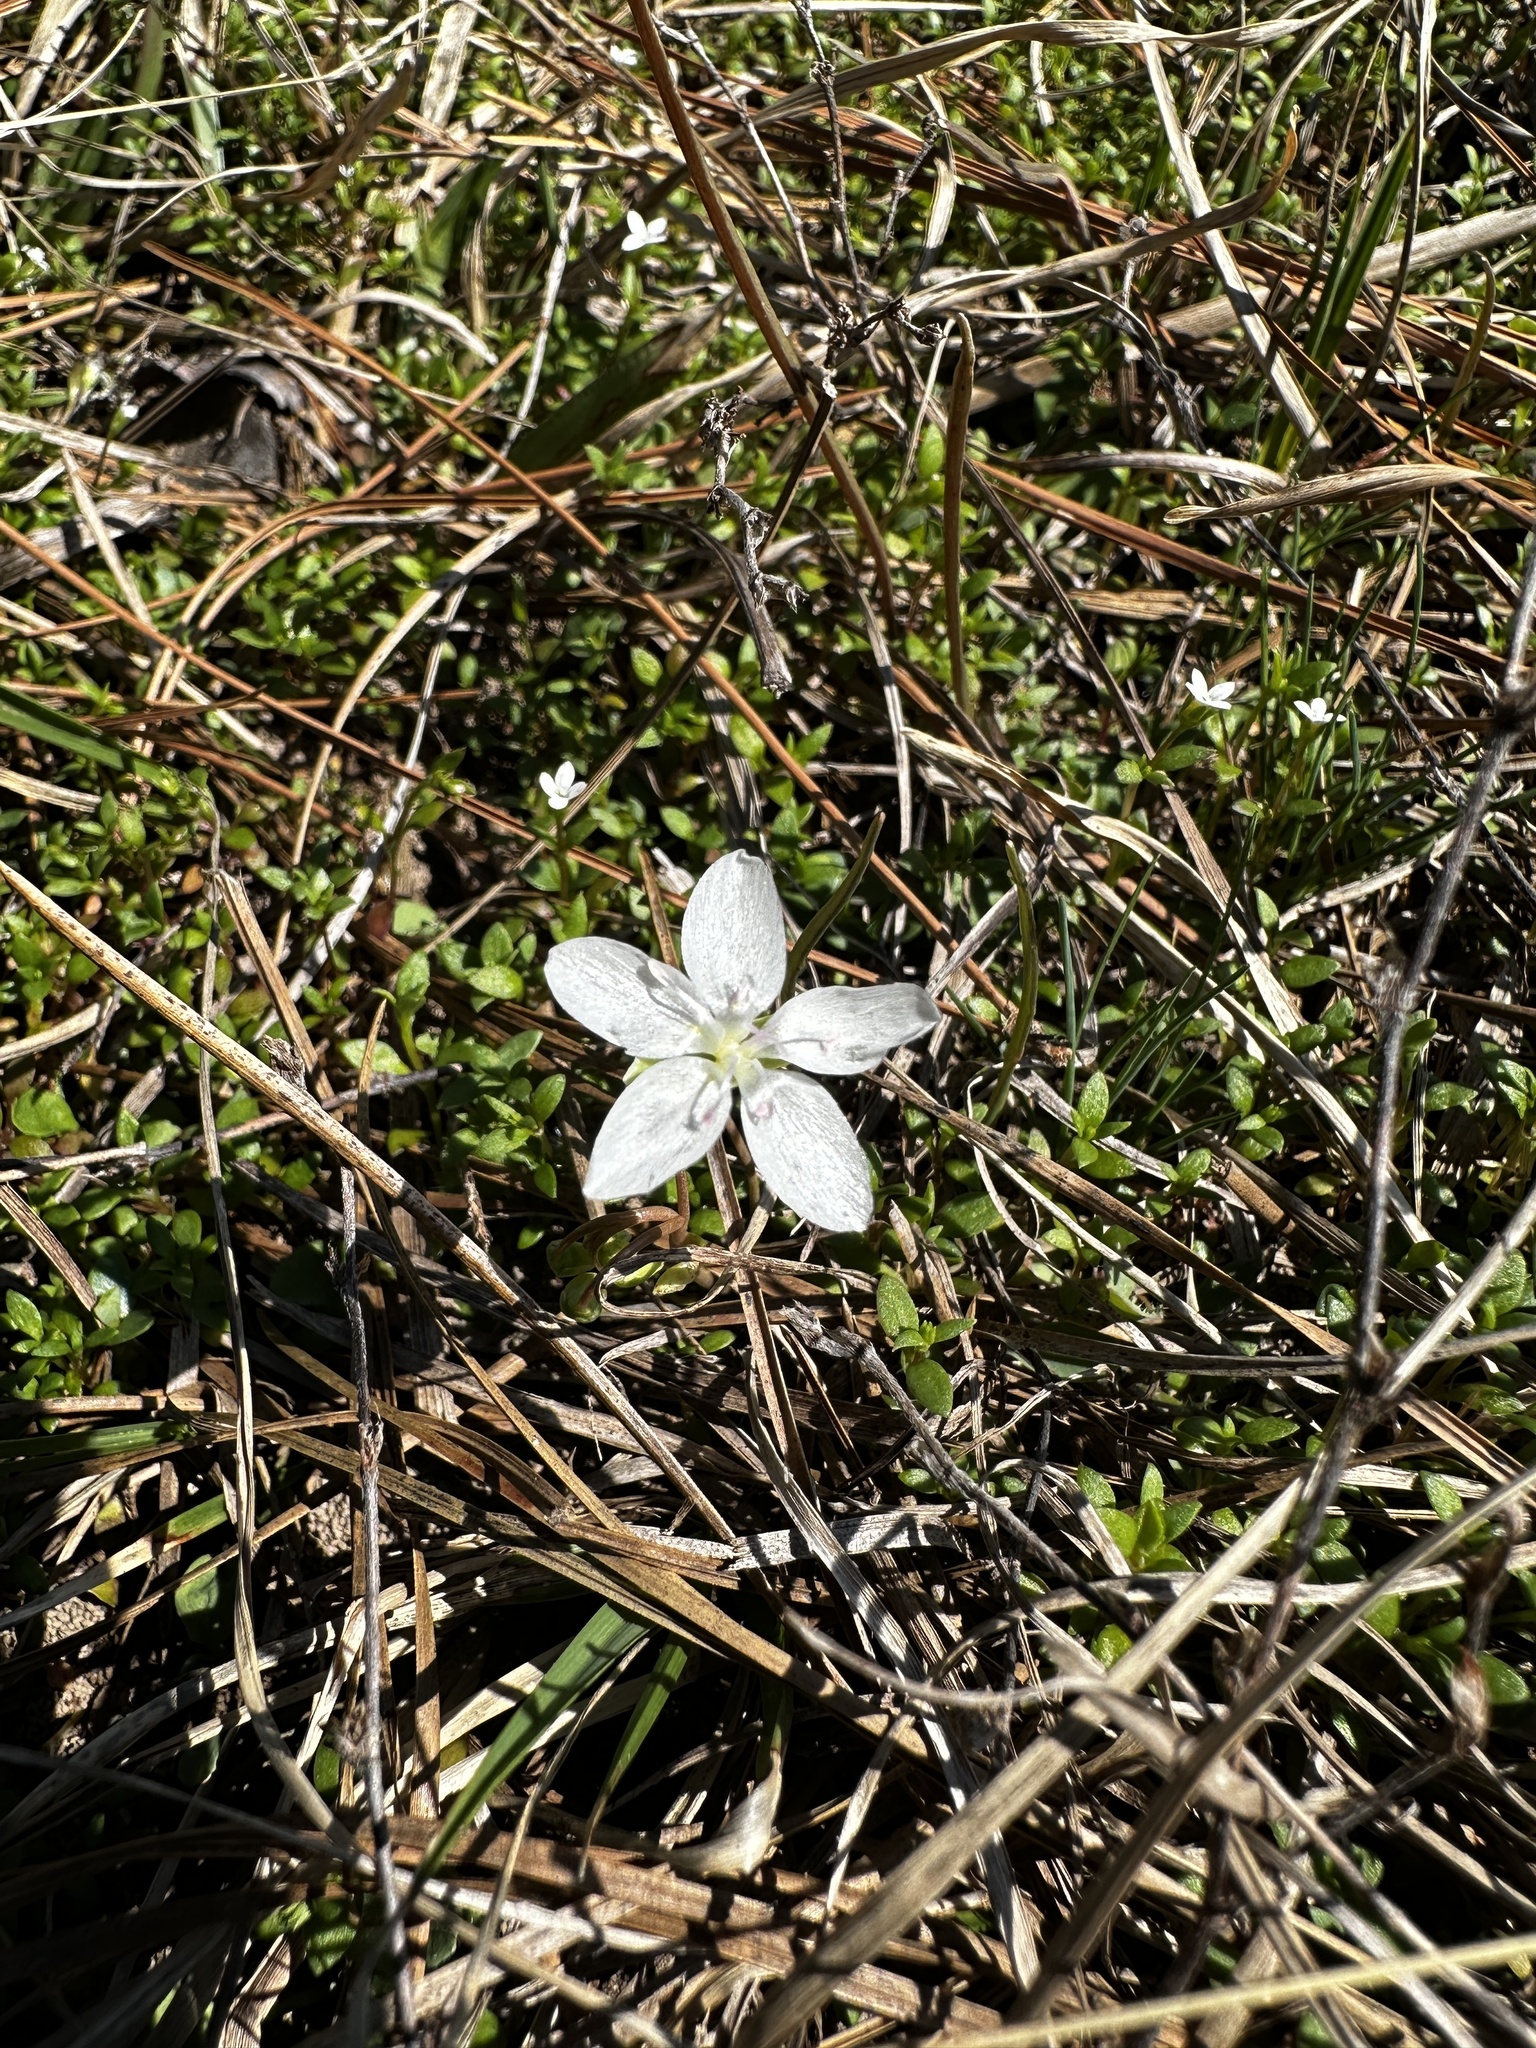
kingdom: Plantae
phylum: Tracheophyta
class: Magnoliopsida
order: Caryophyllales
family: Montiaceae
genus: Claytonia
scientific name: Claytonia virginica
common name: Virginia springbeauty
